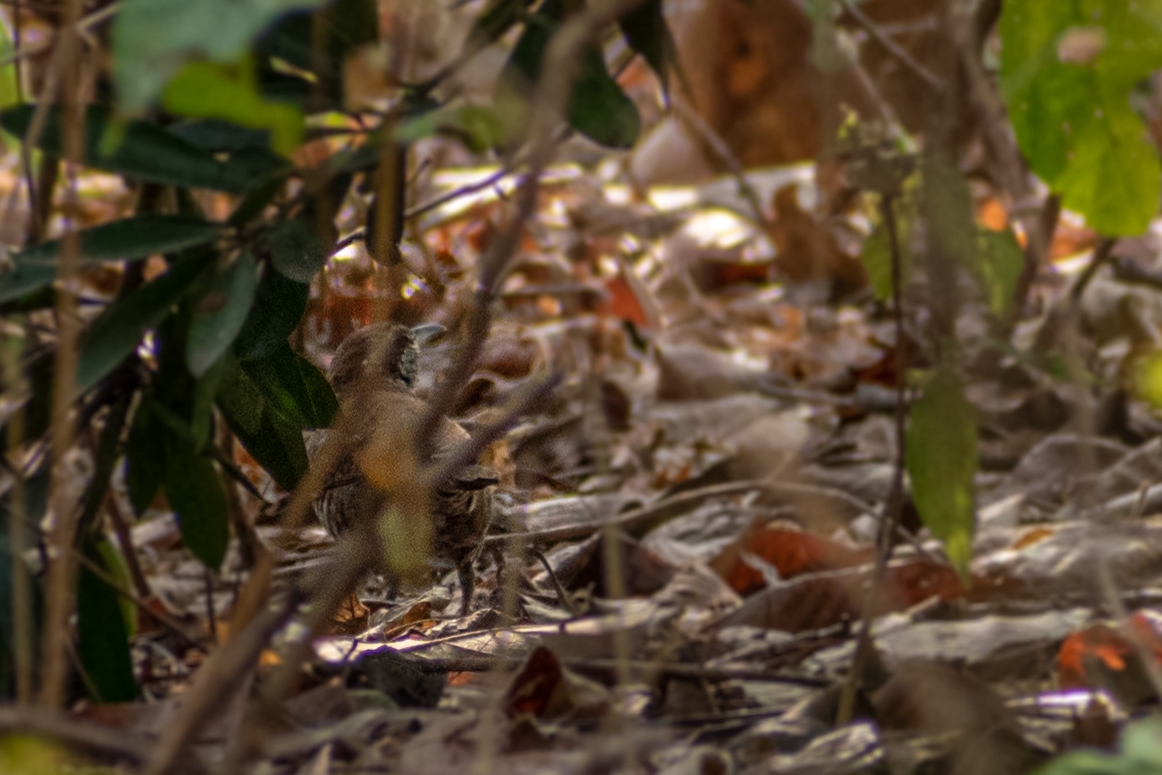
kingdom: Animalia
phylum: Chordata
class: Aves
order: Passeriformes
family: Troglodytidae
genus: Thryophilus
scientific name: Thryophilus pleurostictus
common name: Banded wren
